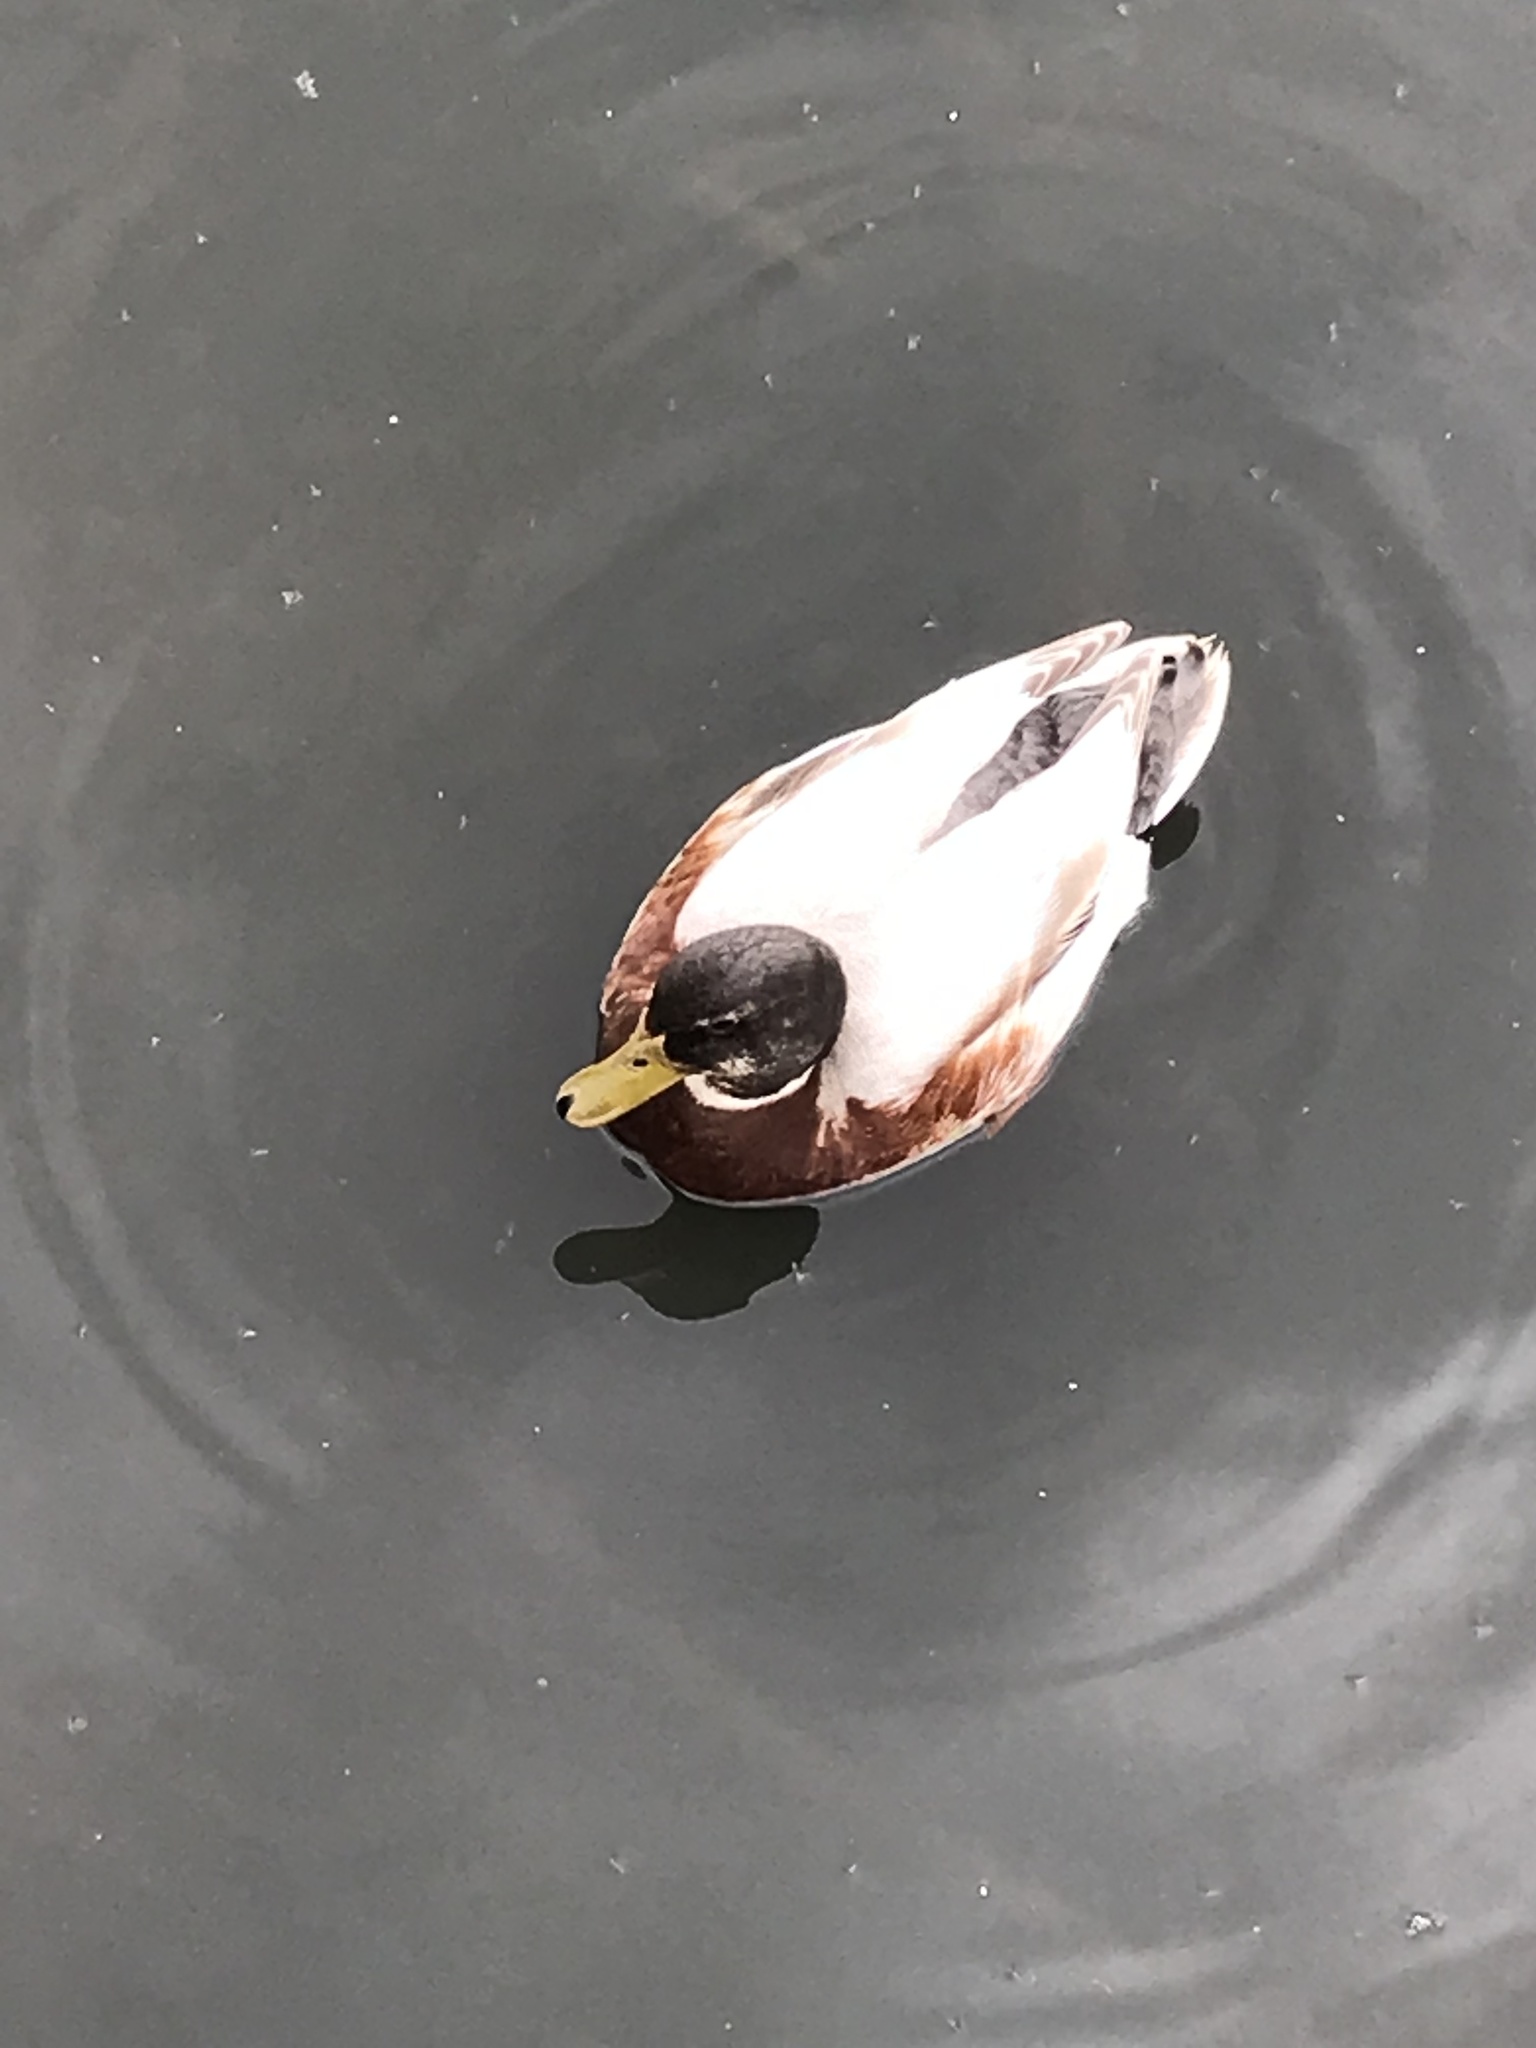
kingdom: Animalia
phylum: Chordata
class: Aves
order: Anseriformes
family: Anatidae
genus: Anas
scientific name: Anas platyrhynchos
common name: Mallard
